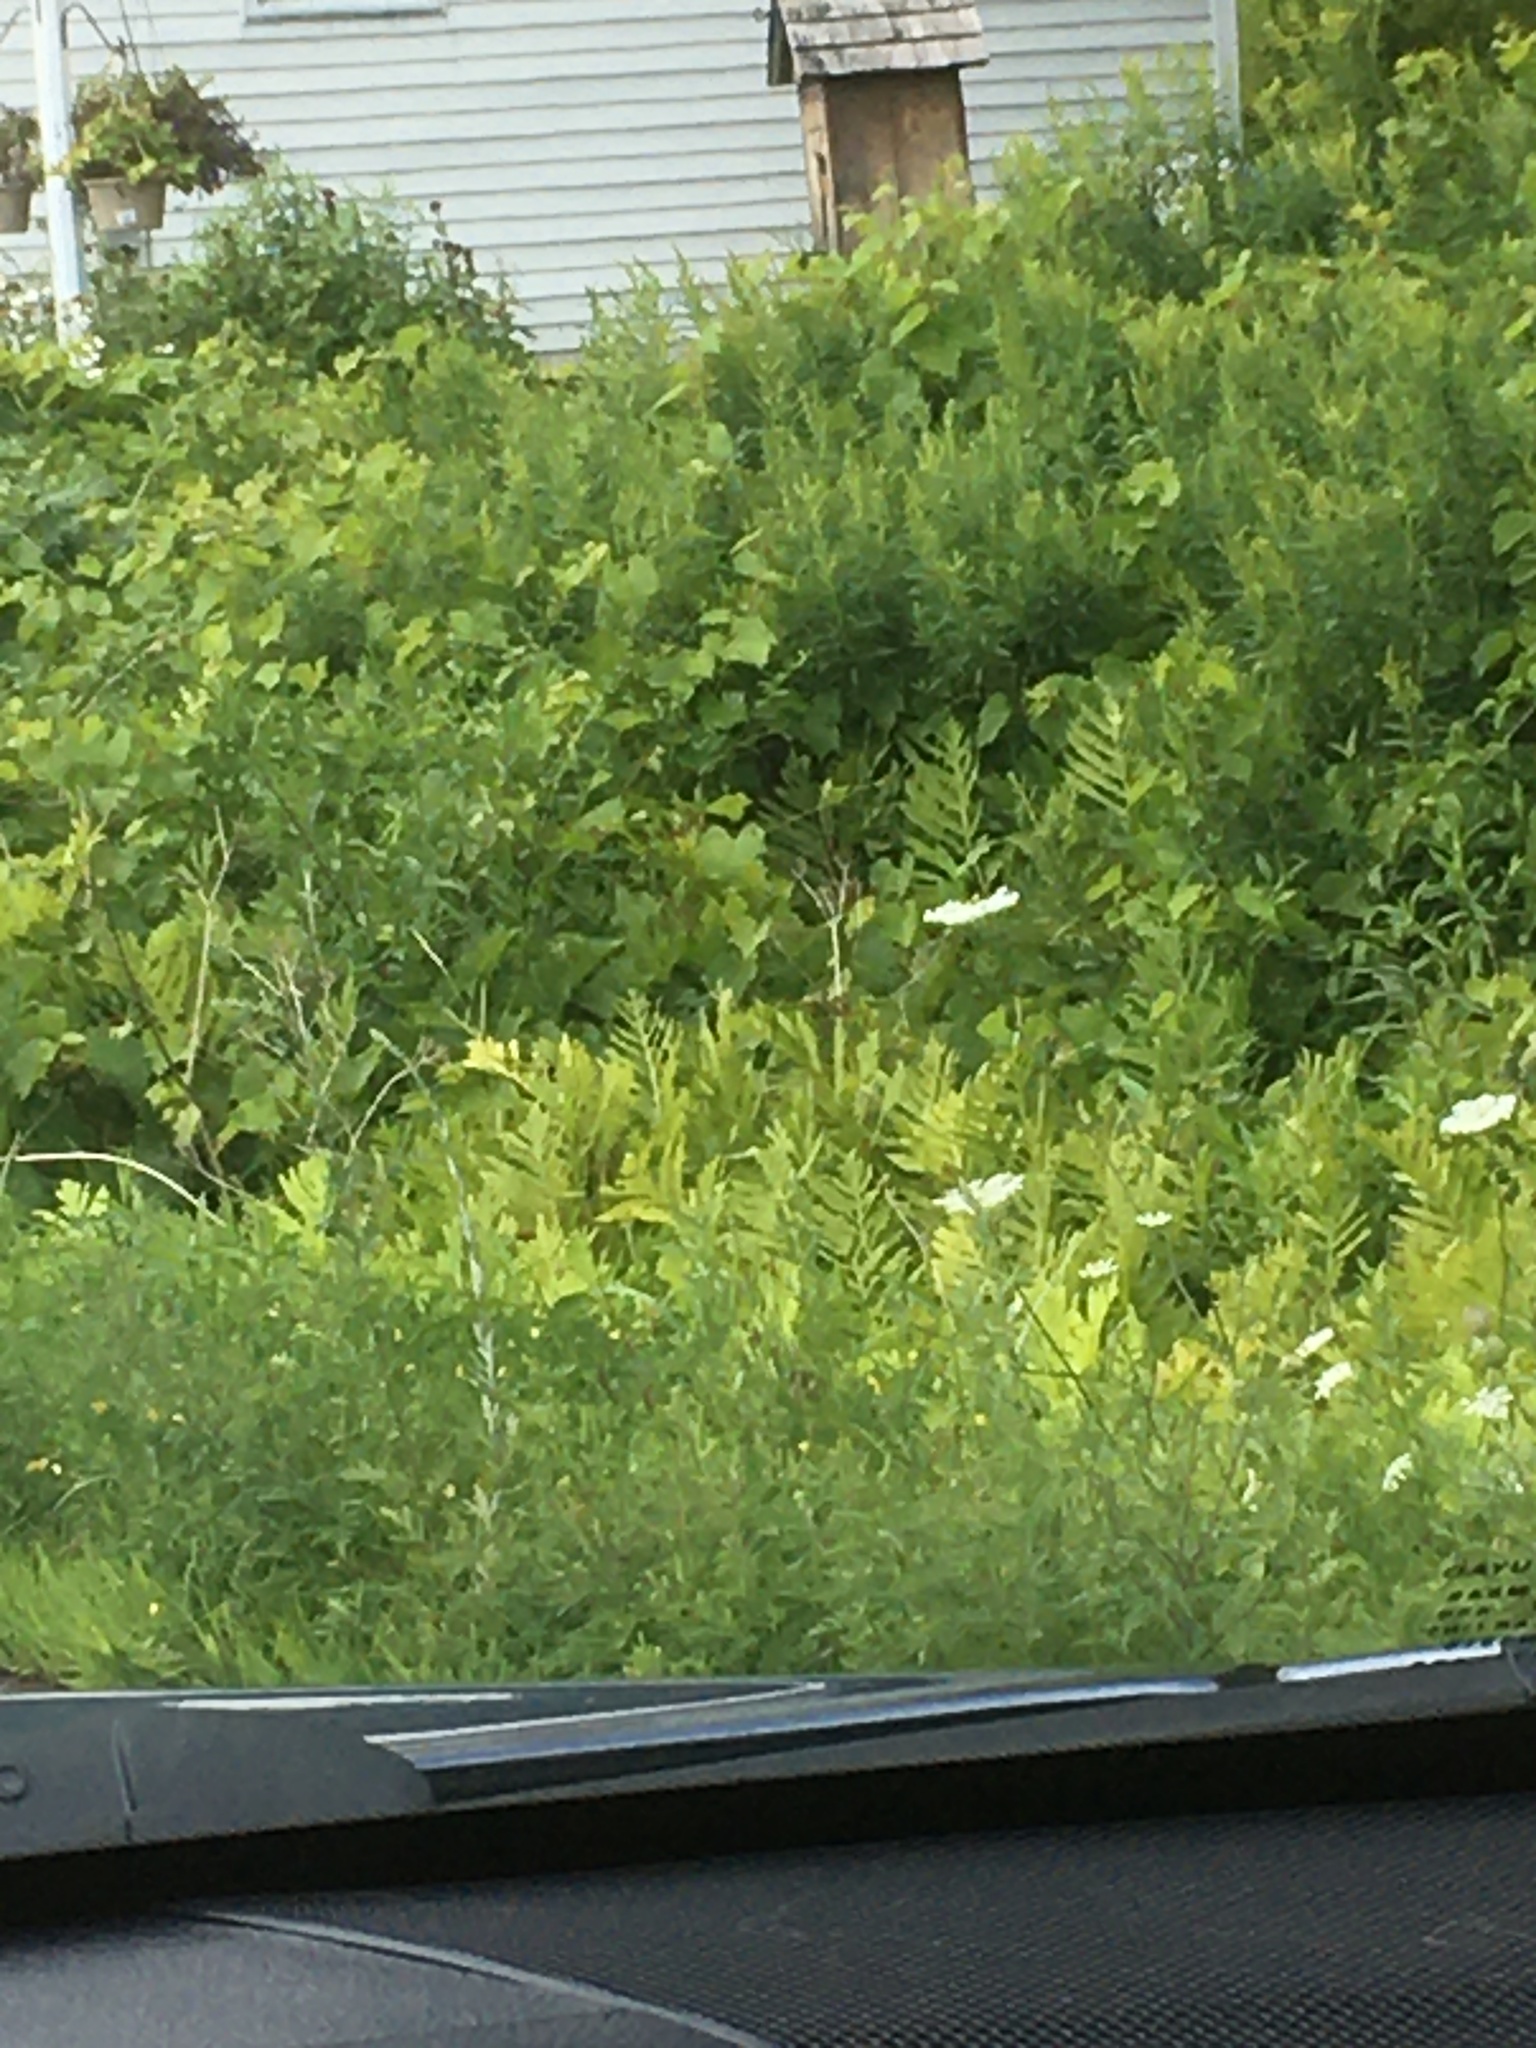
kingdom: Plantae
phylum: Tracheophyta
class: Polypodiopsida
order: Polypodiales
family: Onocleaceae
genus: Onoclea
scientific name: Onoclea sensibilis
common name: Sensitive fern
